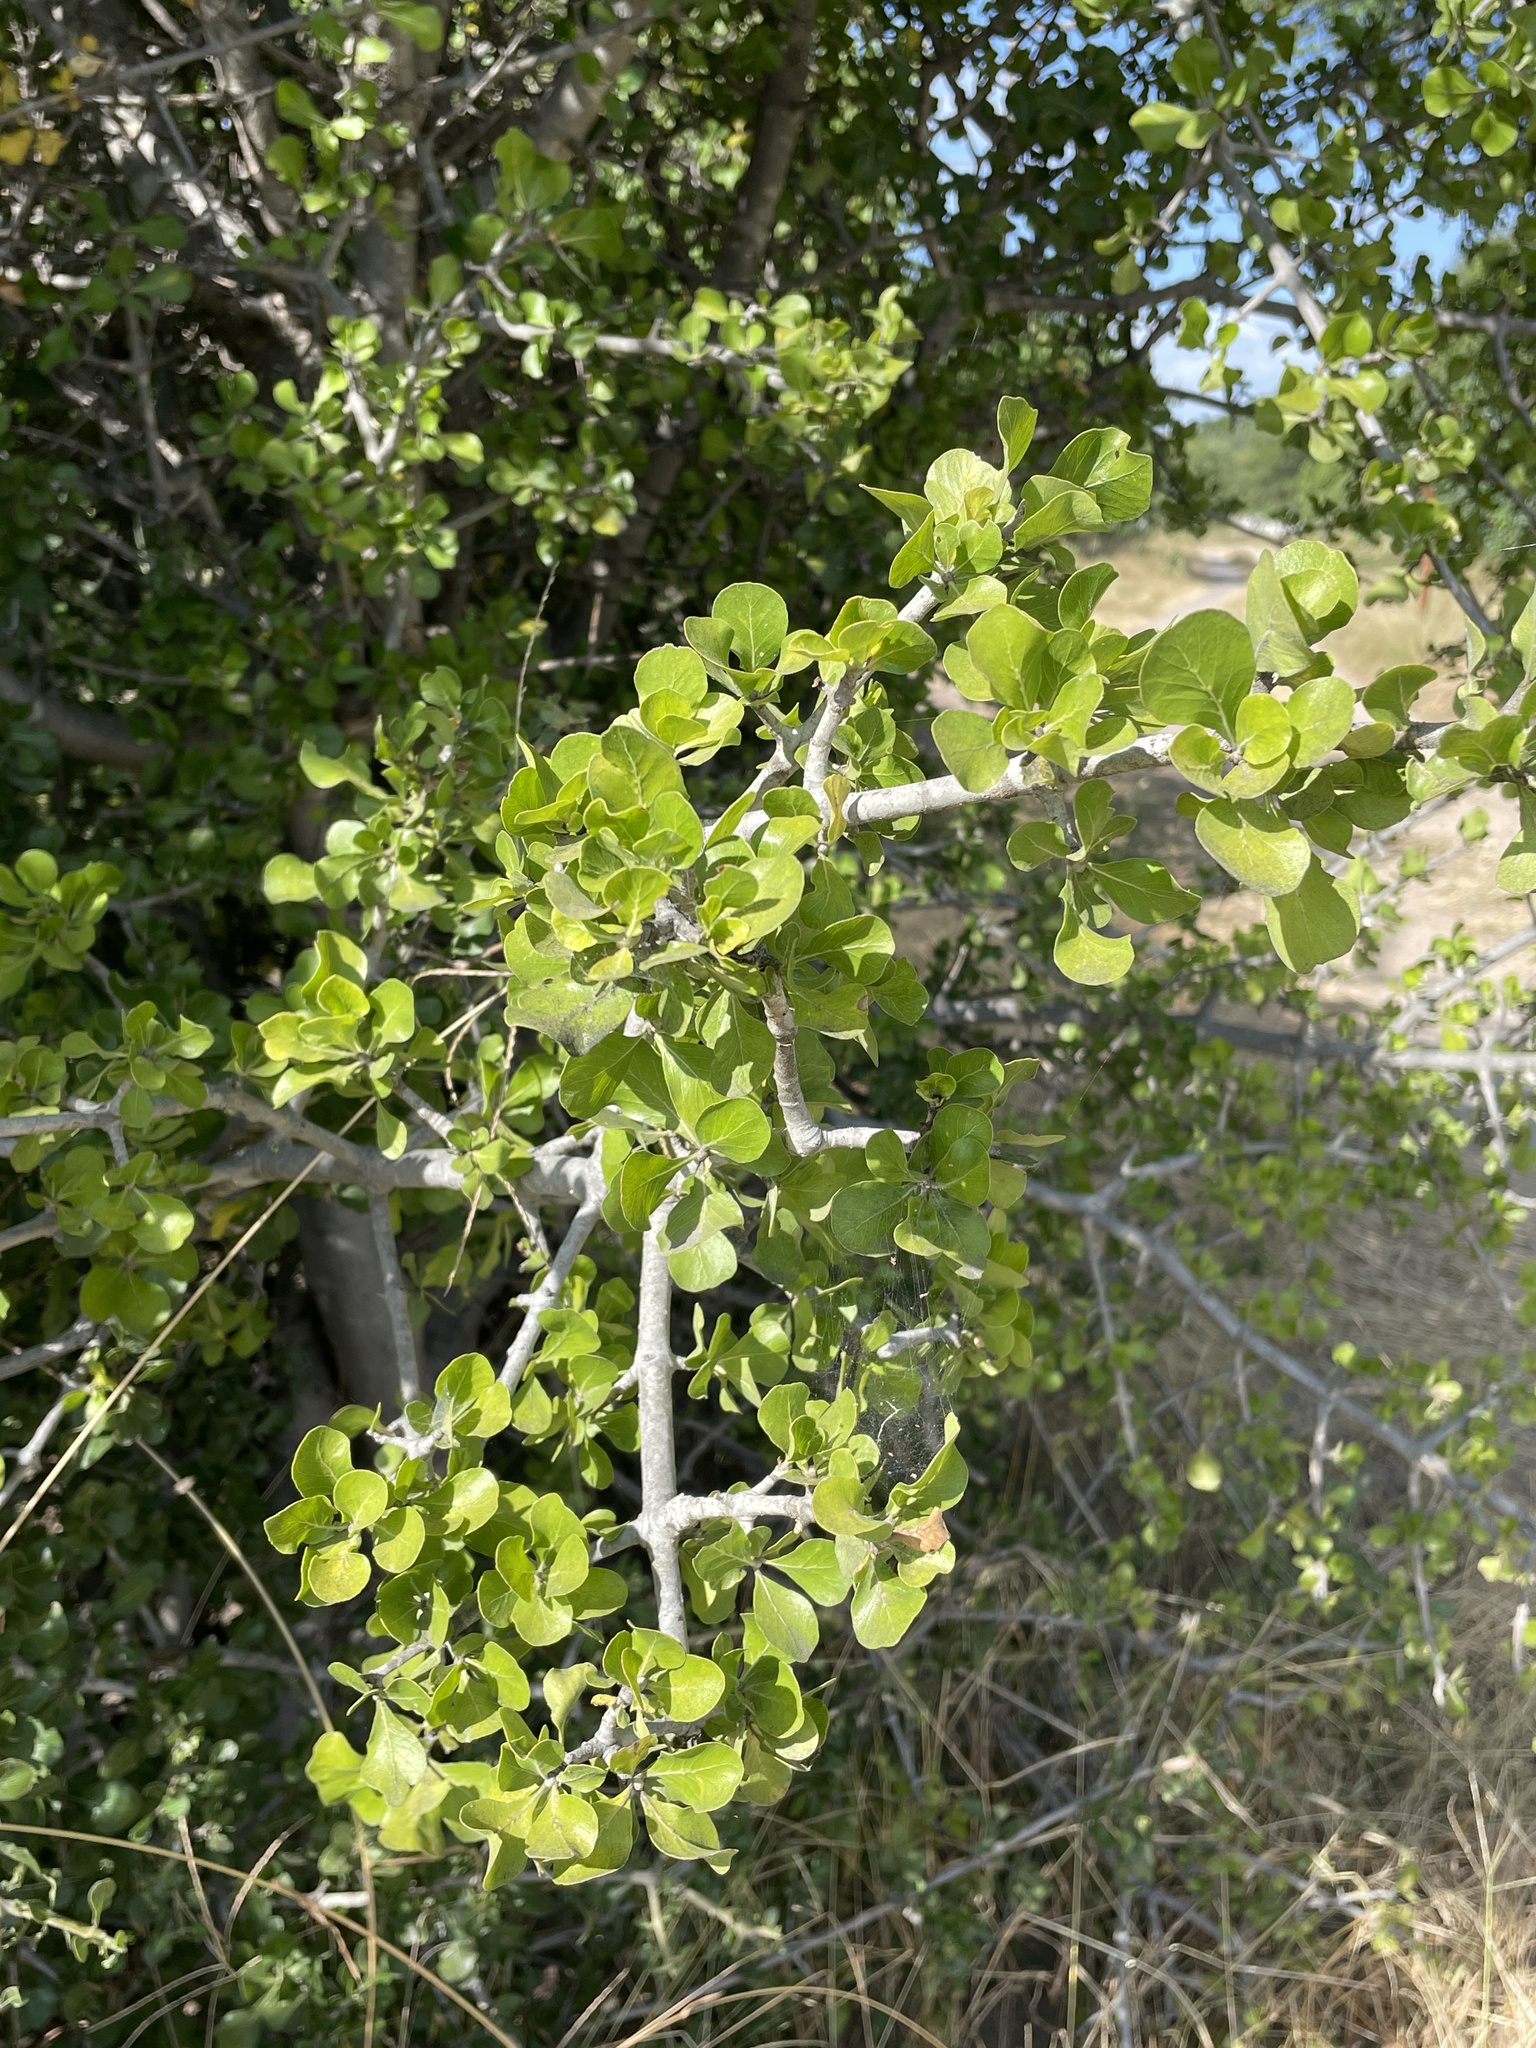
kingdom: Plantae
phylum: Tracheophyta
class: Magnoliopsida
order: Gentianales
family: Rubiaceae
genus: Gardenia
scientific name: Gardenia volkensii
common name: Common gardenia
